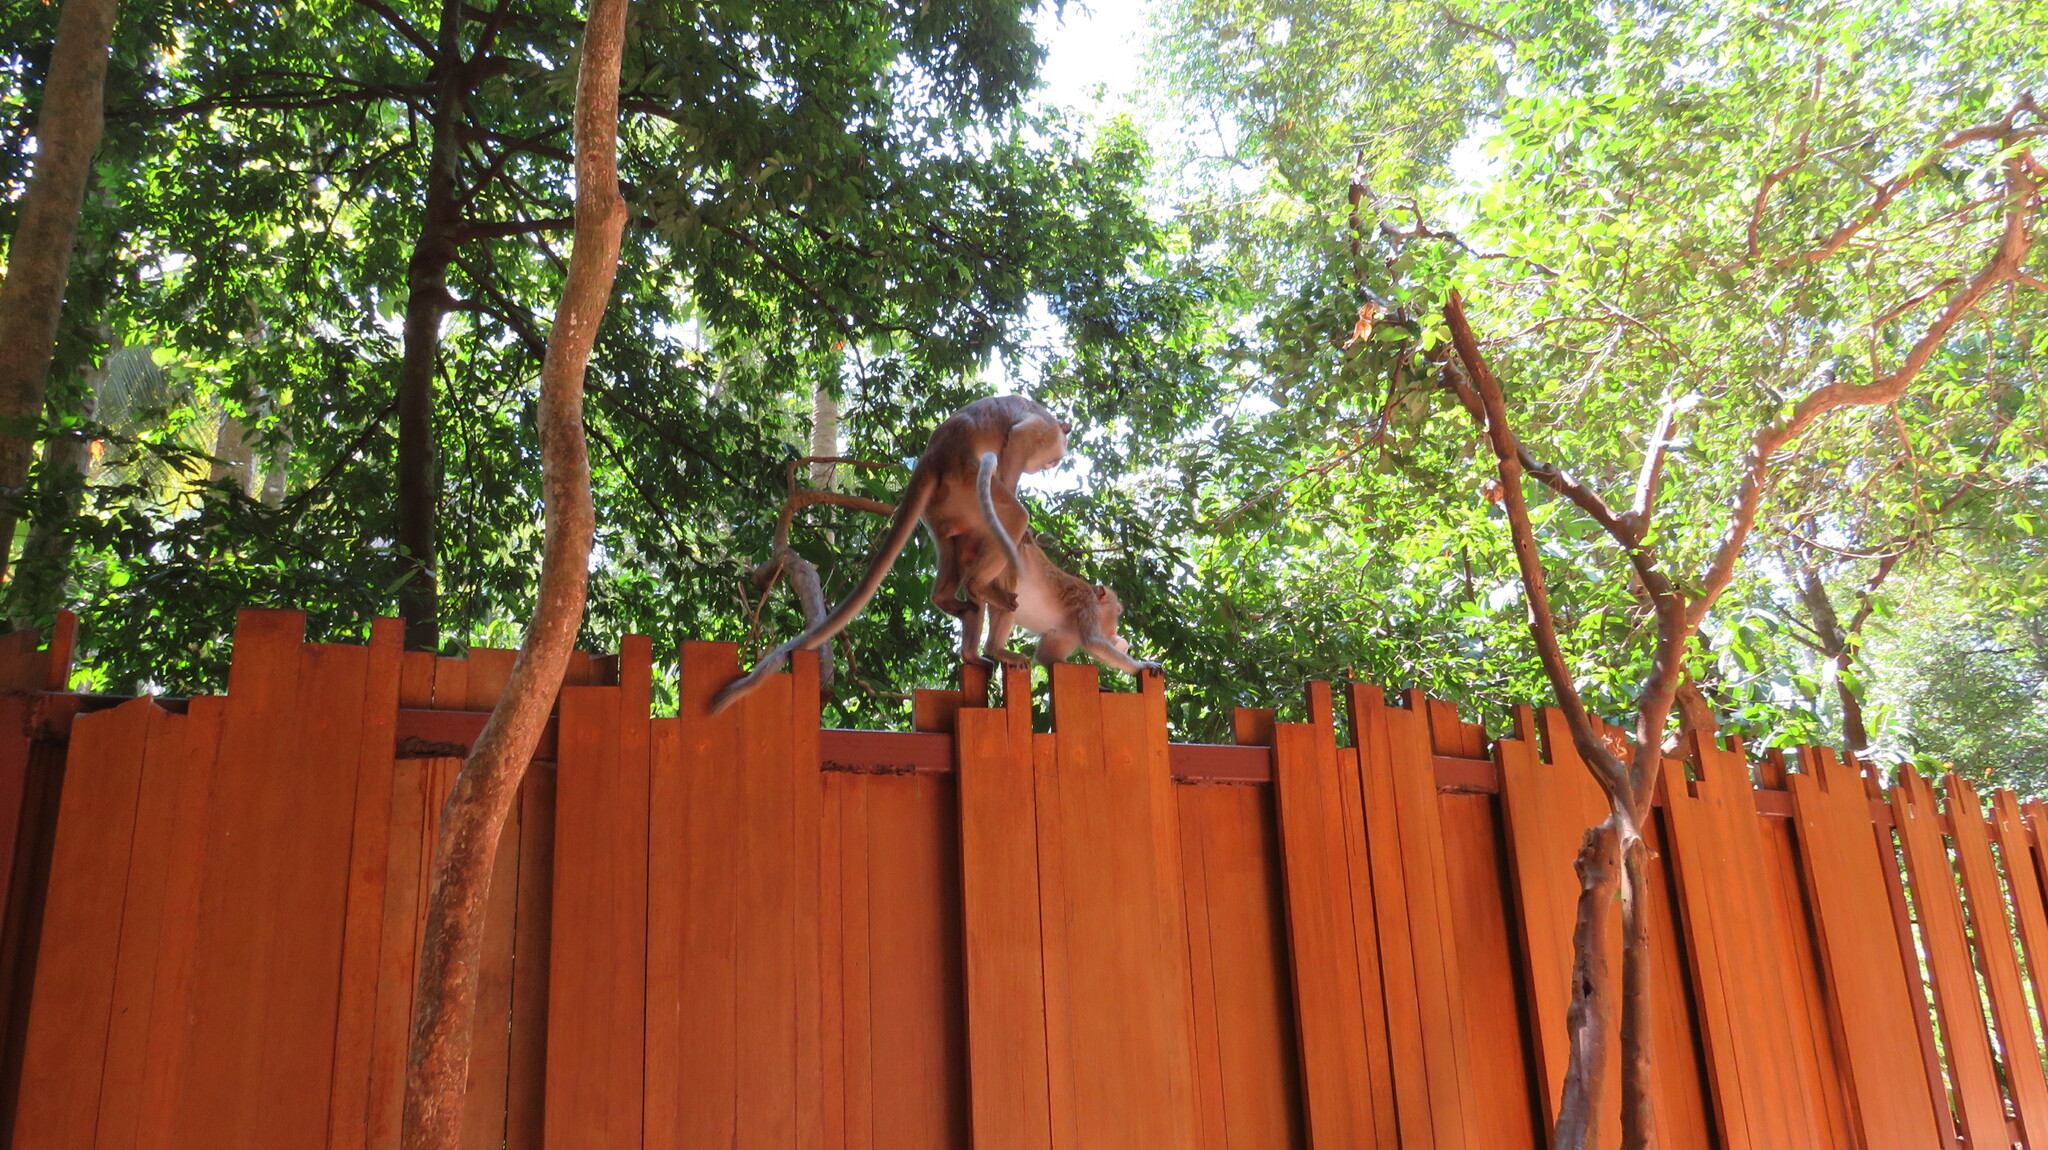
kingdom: Animalia
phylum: Chordata
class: Mammalia
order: Primates
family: Cercopithecidae
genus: Macaca
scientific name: Macaca fascicularis
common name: Crab-eating macaque
